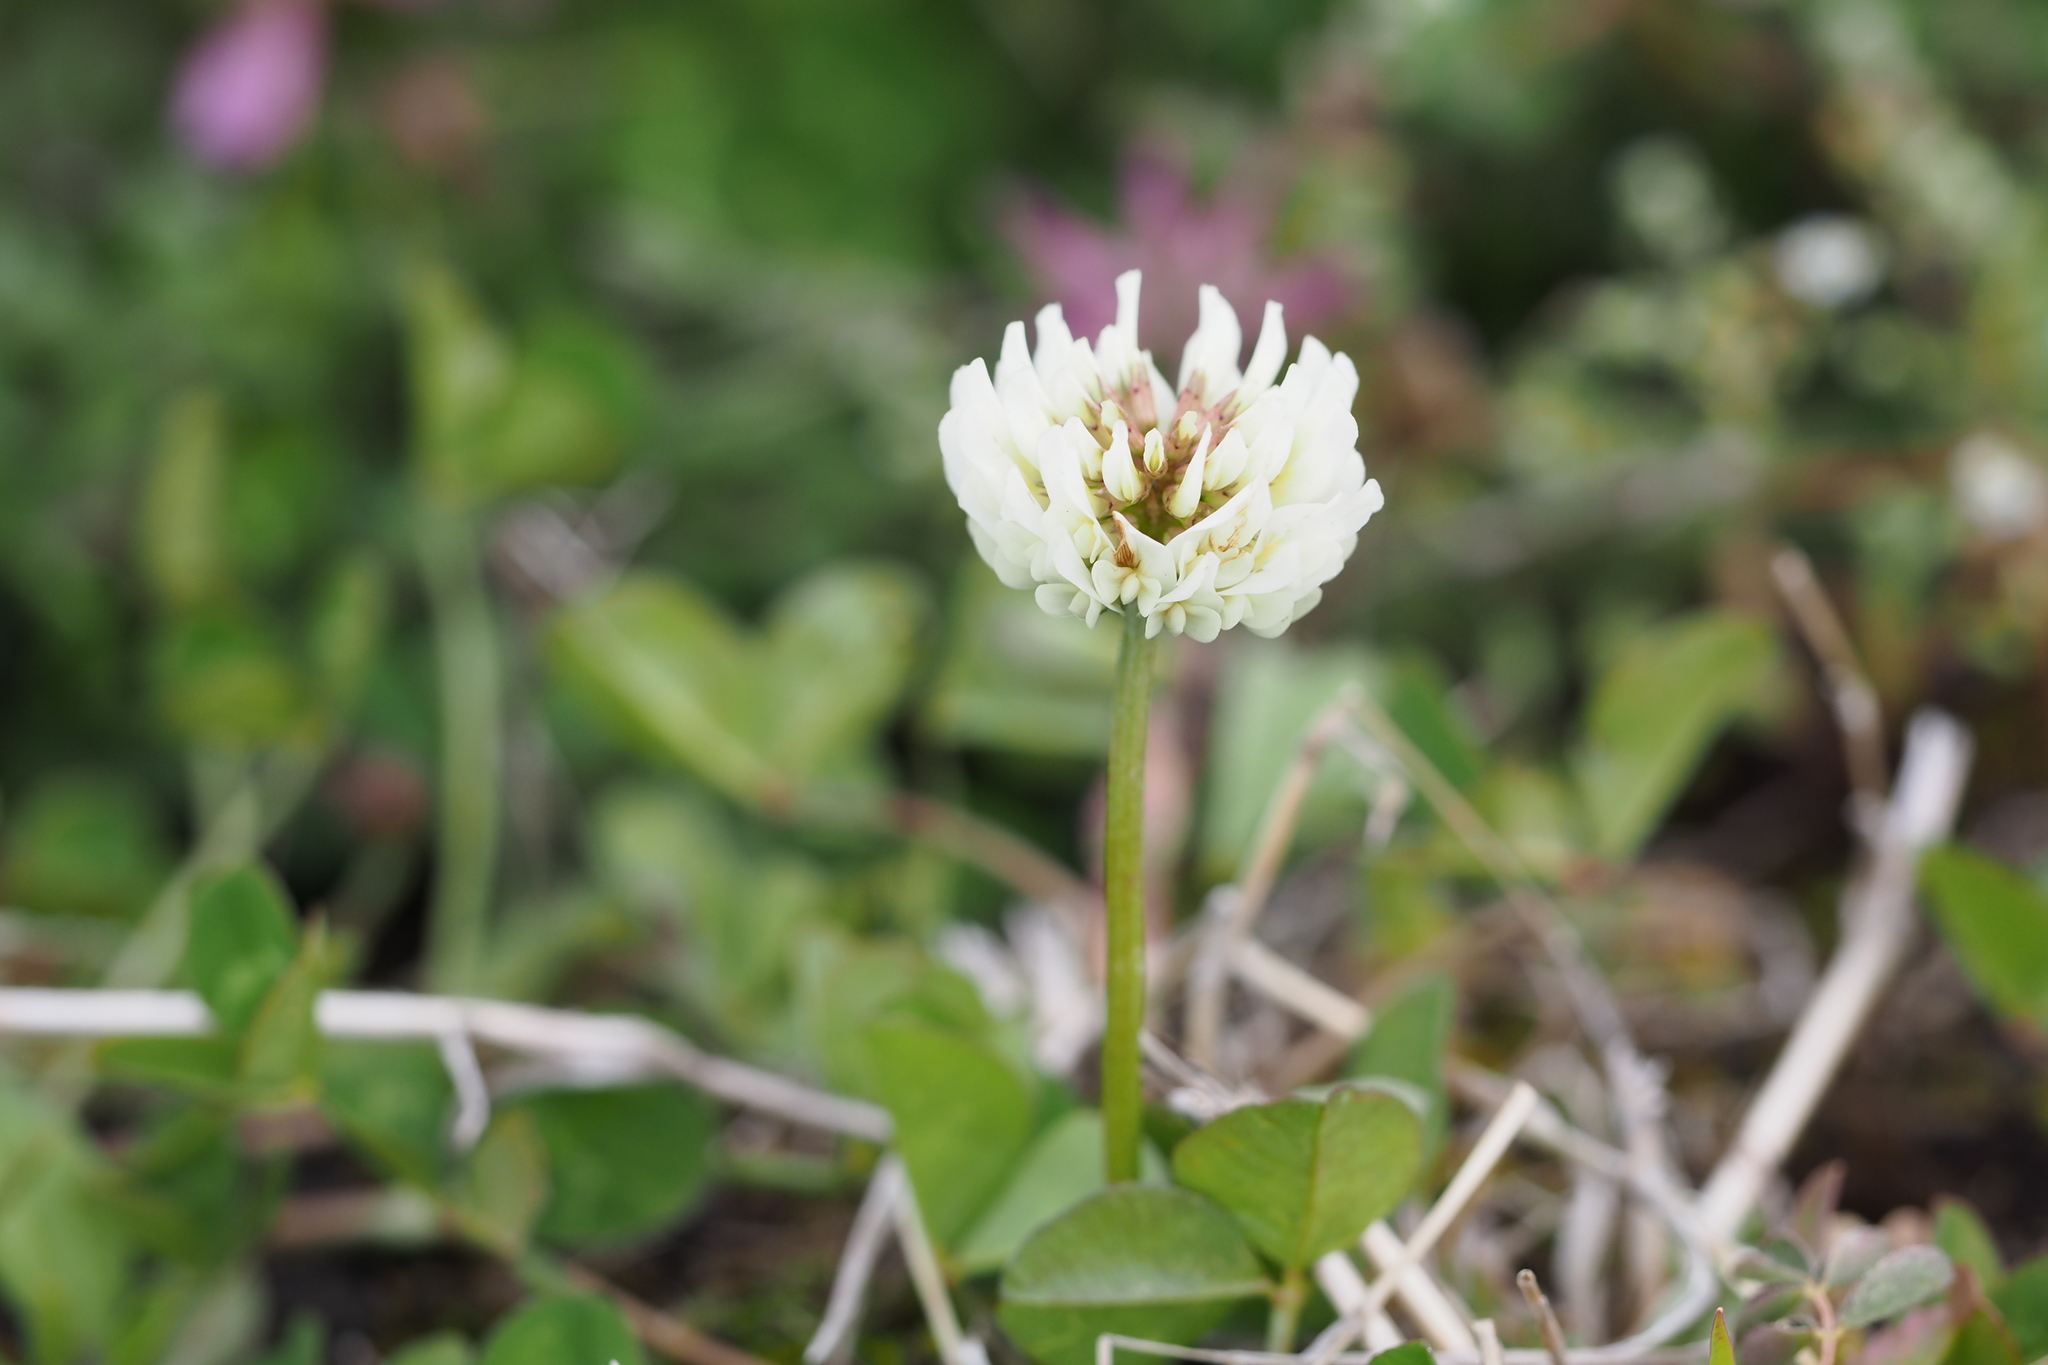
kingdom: Plantae
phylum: Tracheophyta
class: Magnoliopsida
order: Fabales
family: Fabaceae
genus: Trifolium
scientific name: Trifolium repens
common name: White clover
